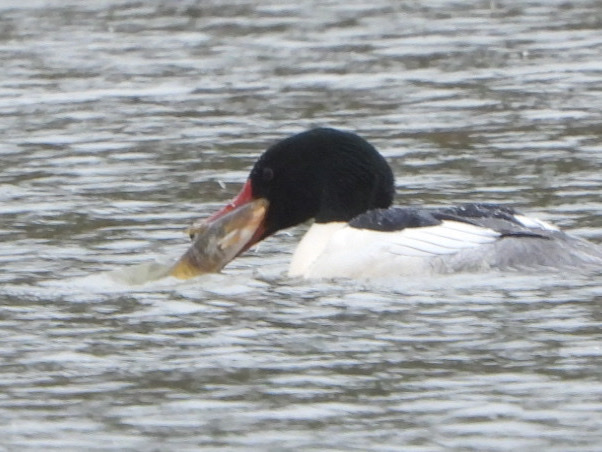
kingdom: Animalia
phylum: Chordata
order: Siluriformes
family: Ictaluridae
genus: Ameiurus
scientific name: Ameiurus nebulosus
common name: Brown bullhead
